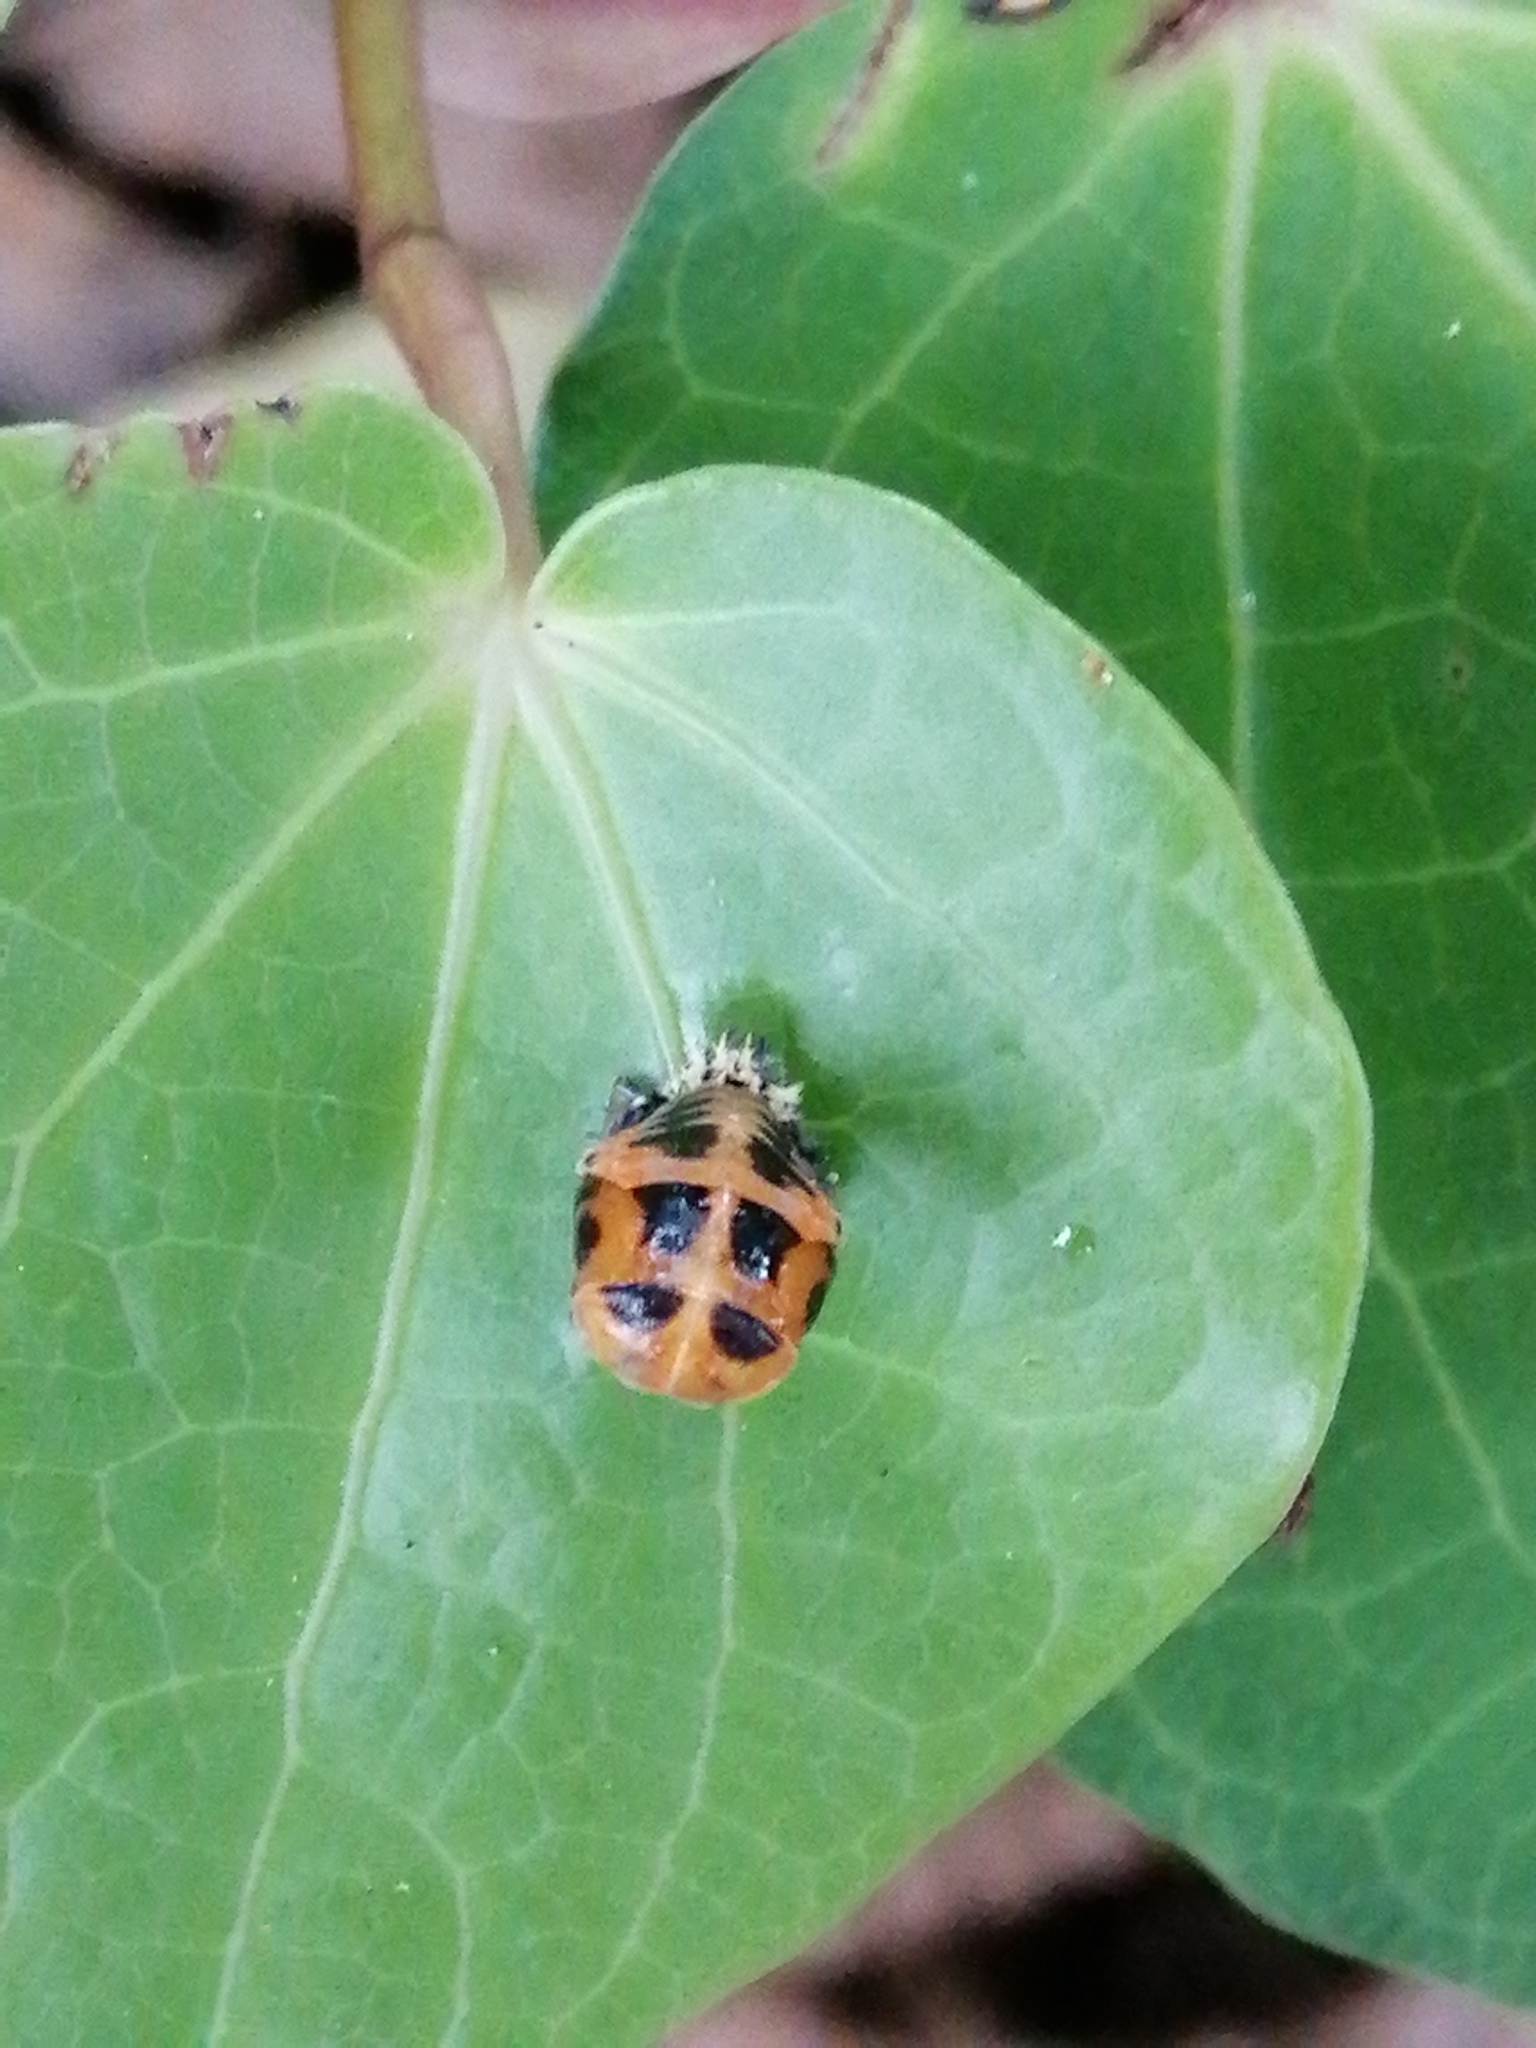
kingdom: Animalia
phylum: Arthropoda
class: Insecta
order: Coleoptera
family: Coccinellidae
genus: Harmonia
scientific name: Harmonia axyridis
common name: Harlequin ladybird
